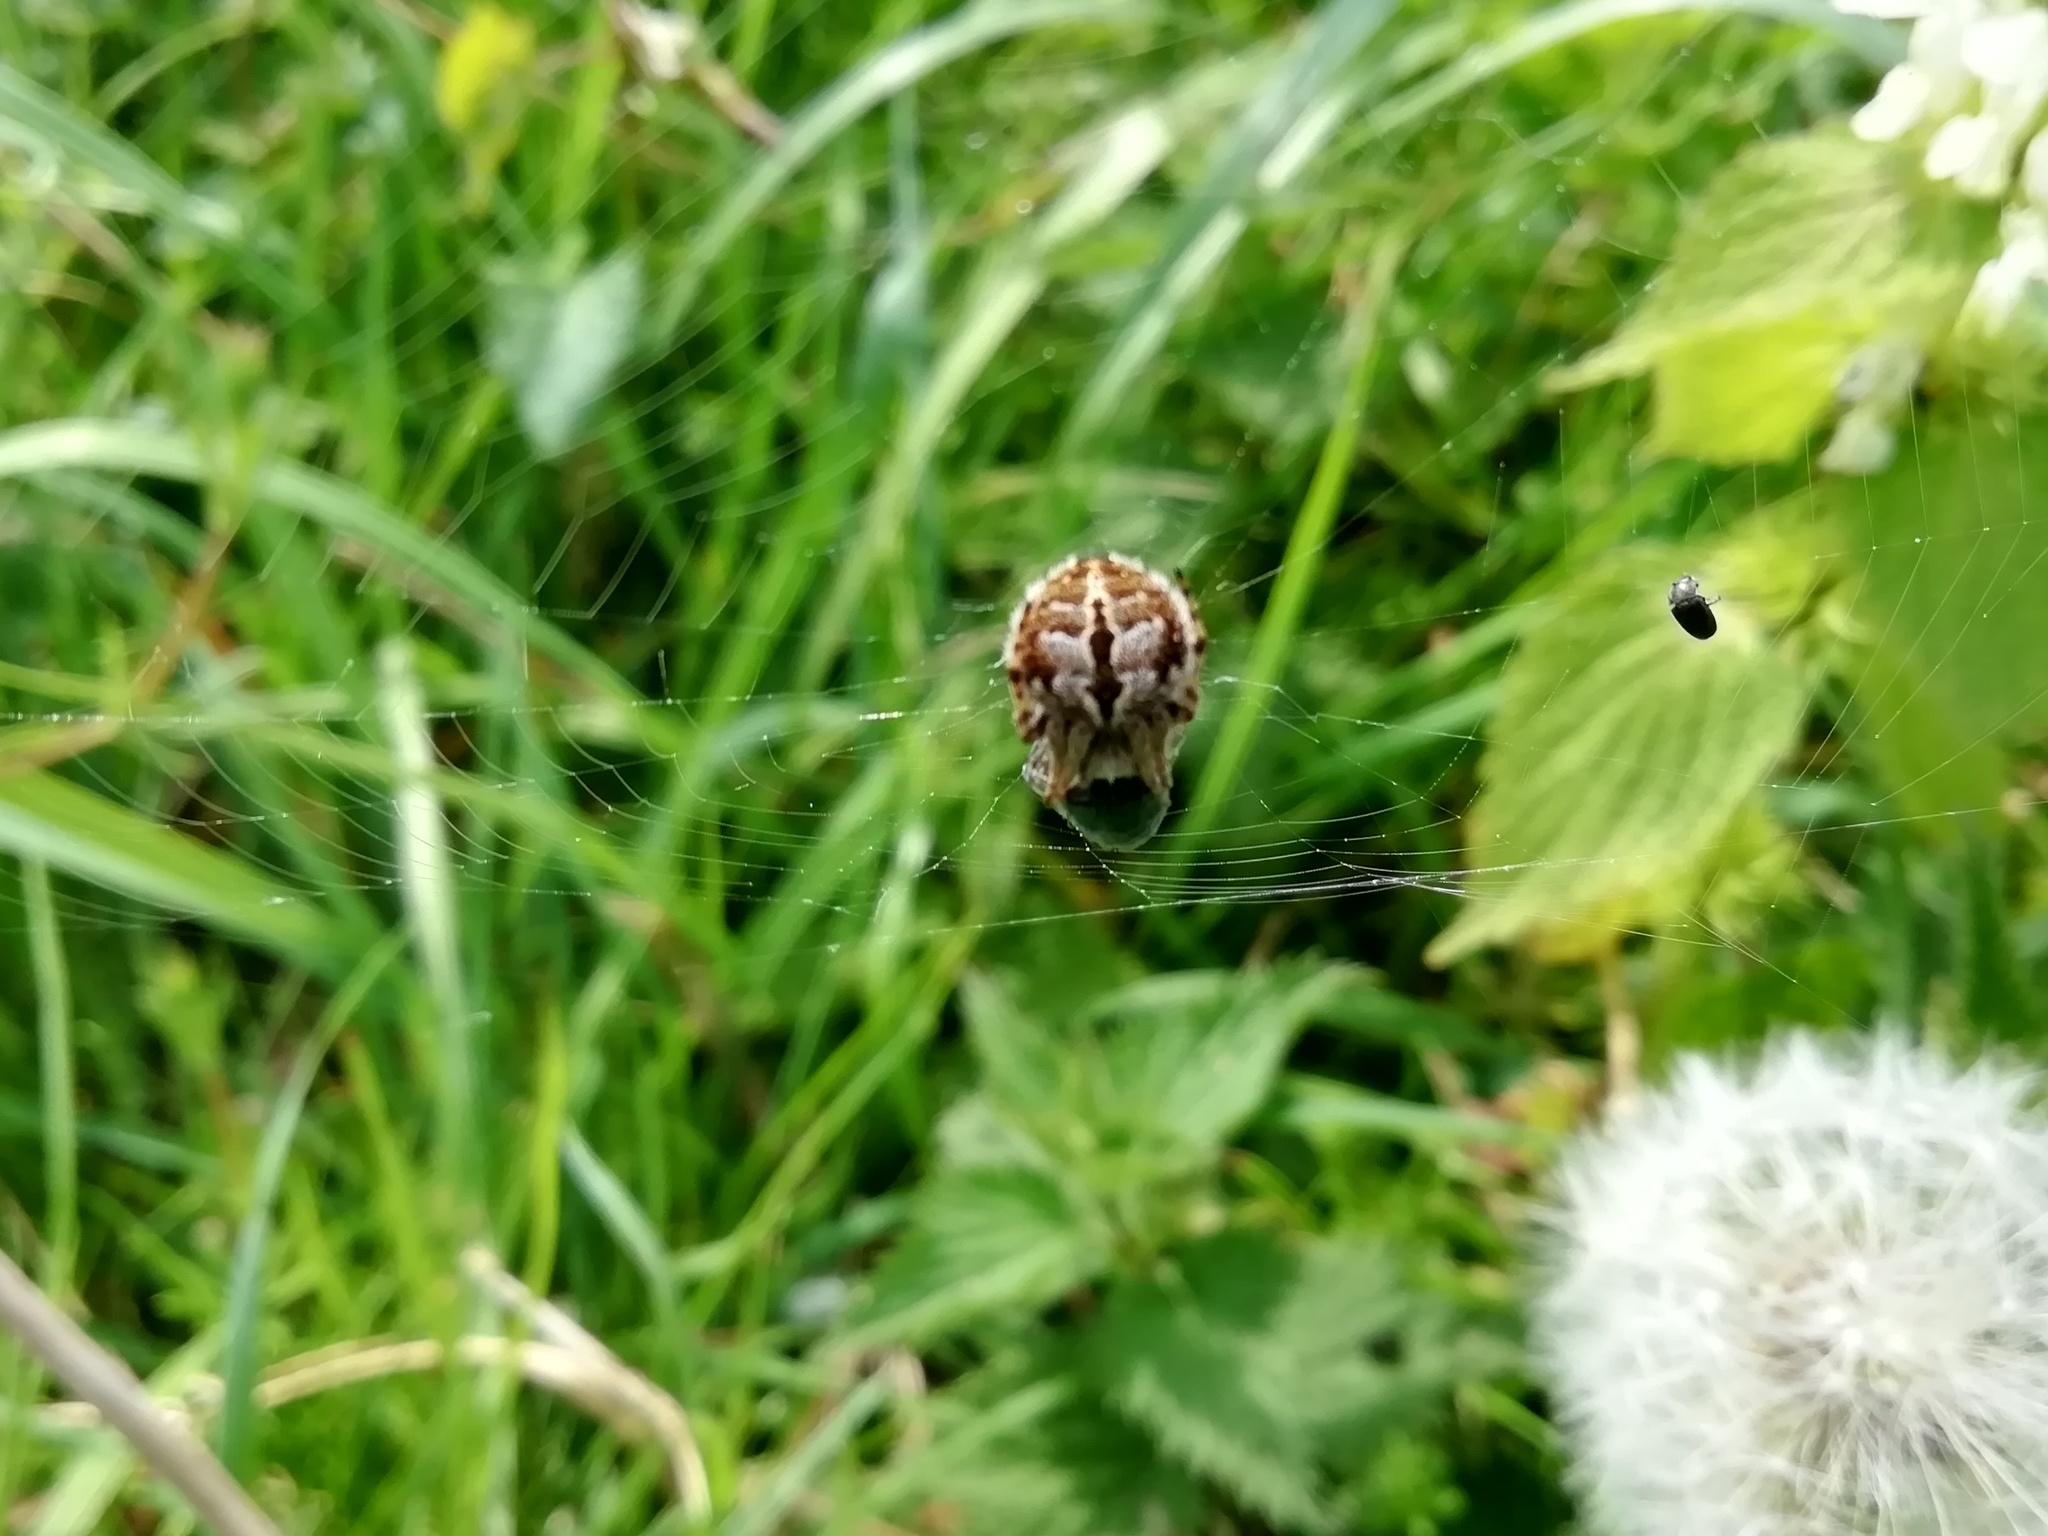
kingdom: Animalia
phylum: Arthropoda
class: Arachnida
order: Araneae
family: Araneidae
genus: Agalenatea
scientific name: Agalenatea redii
